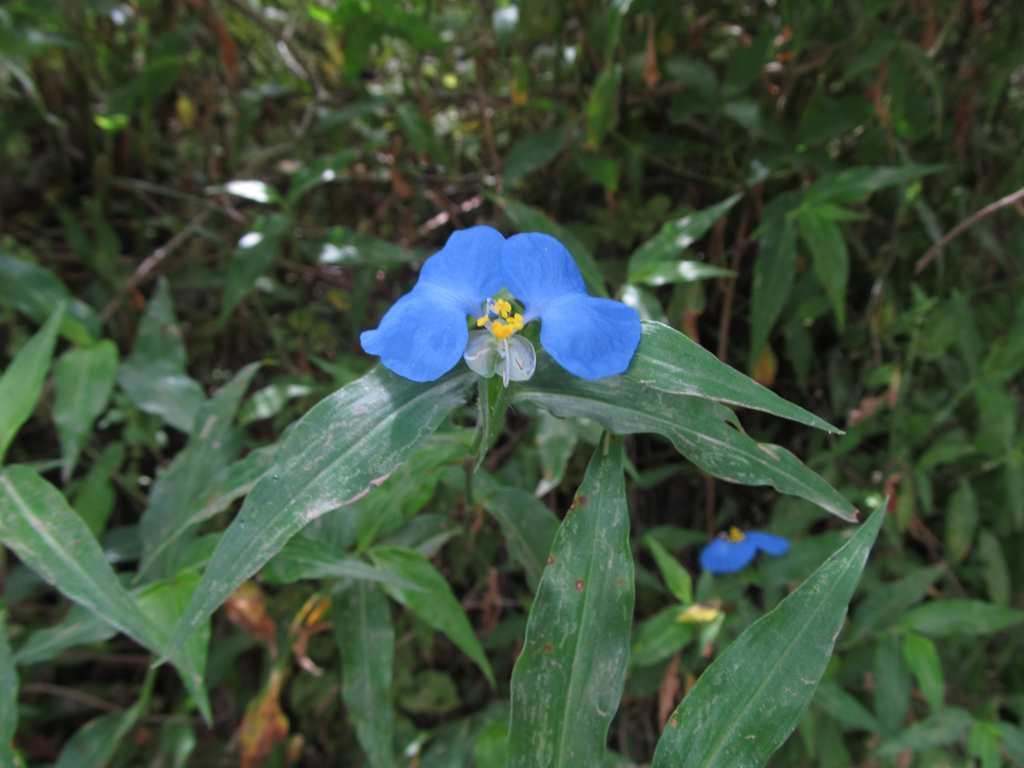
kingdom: Plantae
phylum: Tracheophyta
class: Liliopsida
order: Commelinales
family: Commelinaceae
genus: Commelina
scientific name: Commelina erecta
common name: Blousel blommetjie
